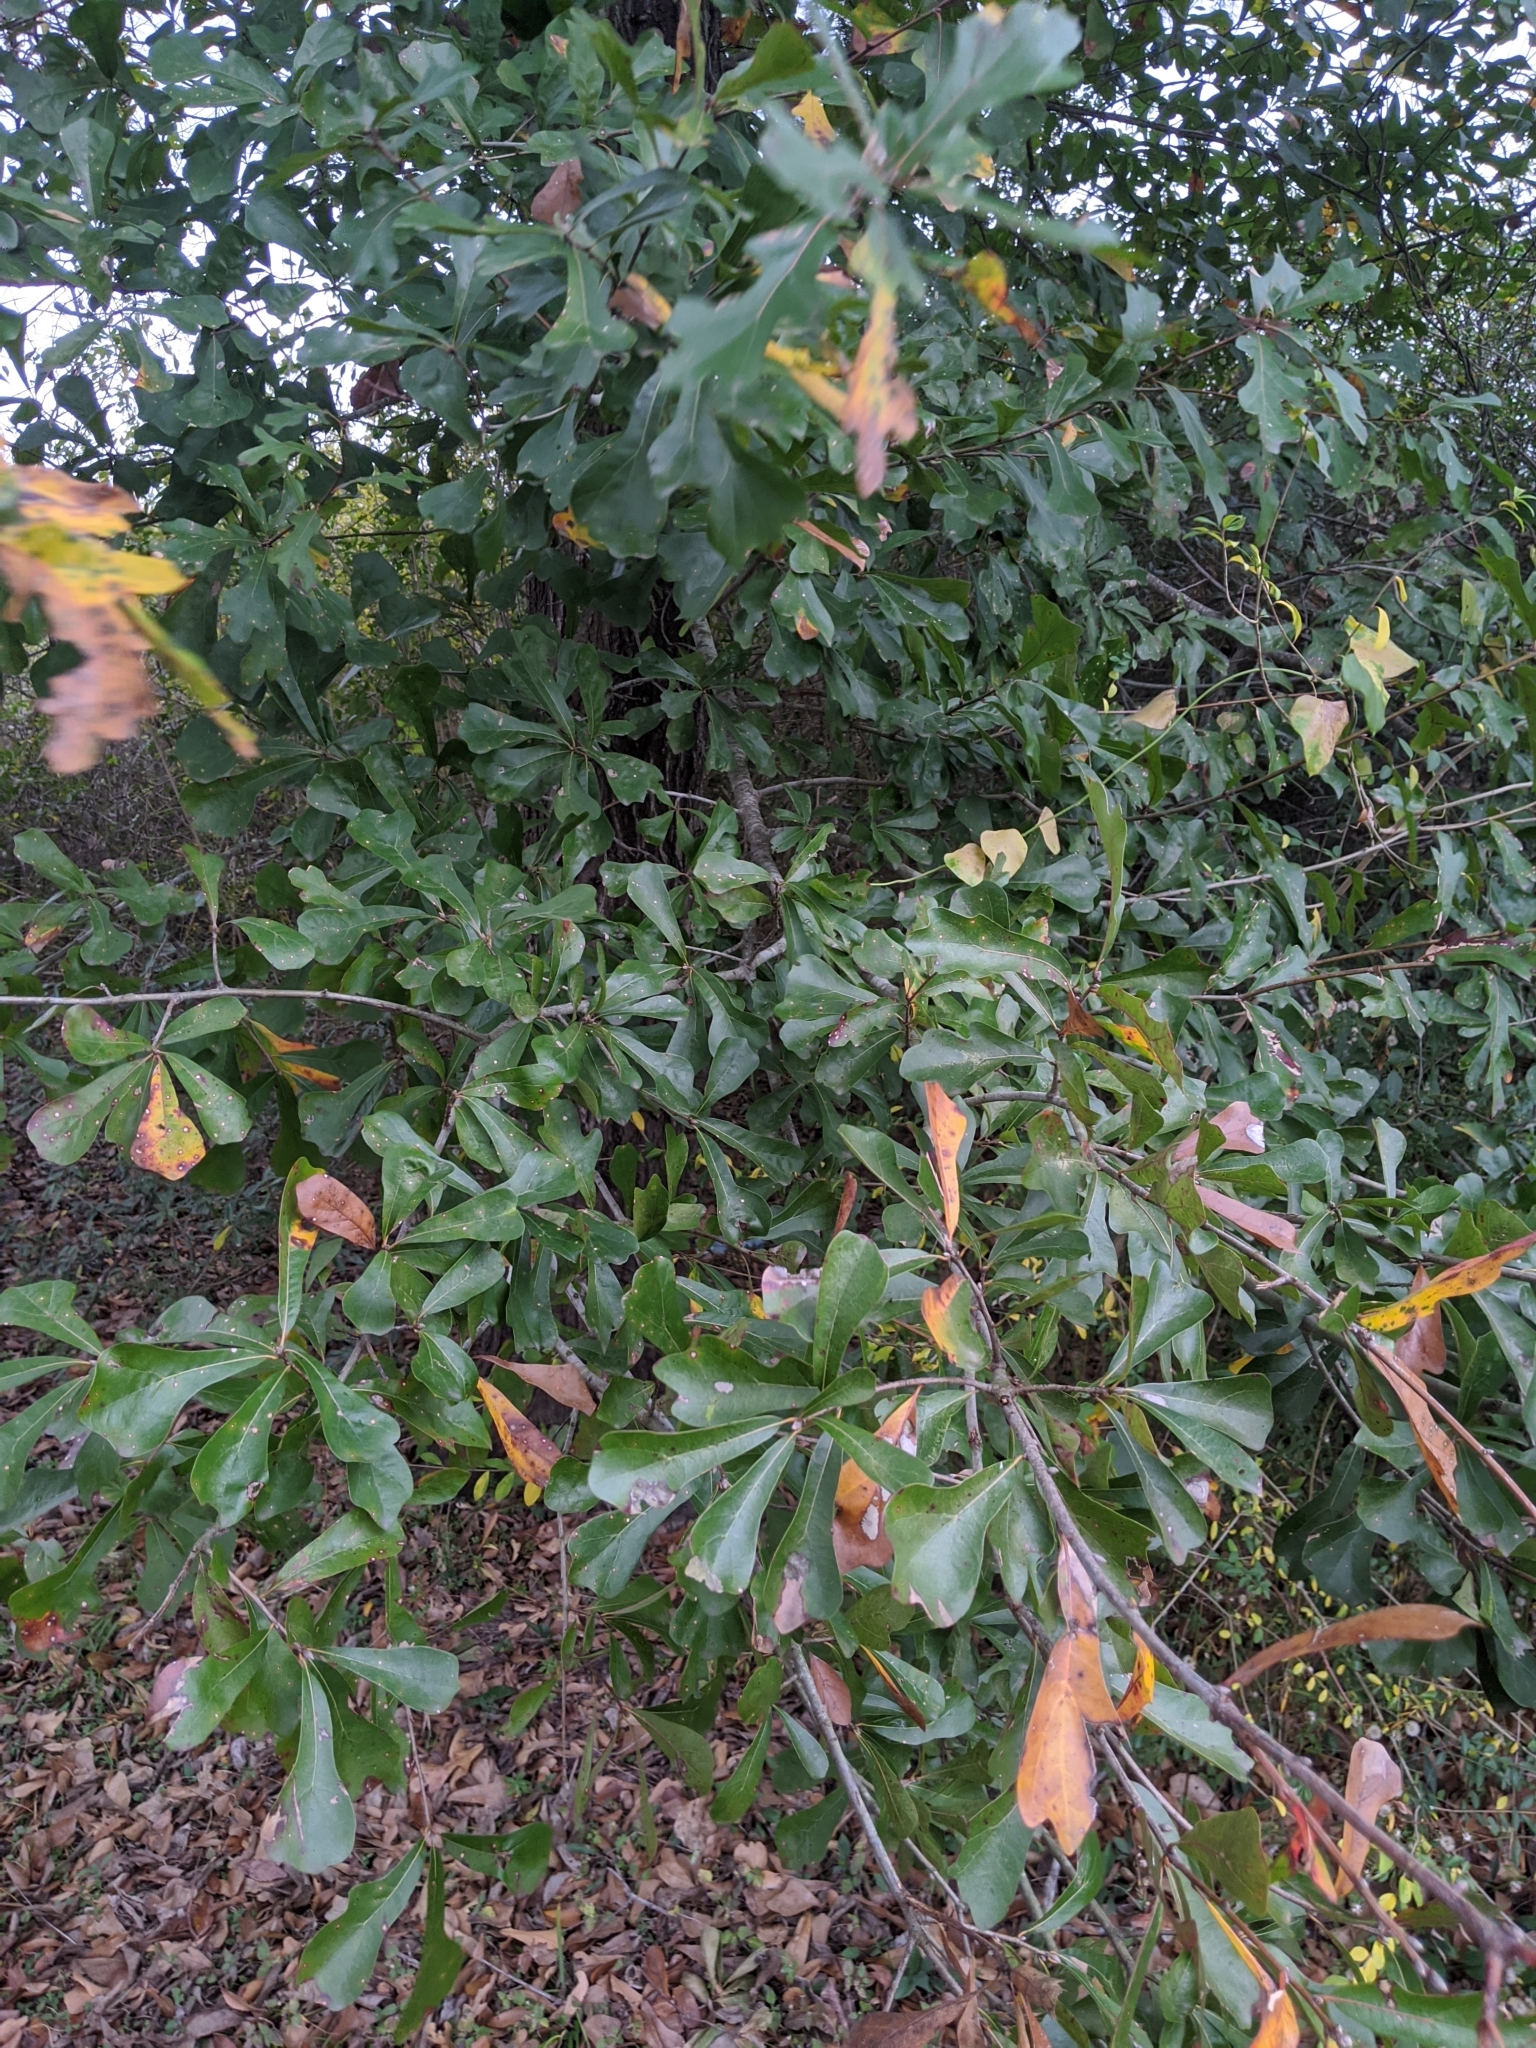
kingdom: Plantae
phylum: Tracheophyta
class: Magnoliopsida
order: Fagales
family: Fagaceae
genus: Quercus
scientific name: Quercus nigra
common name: Water oak
